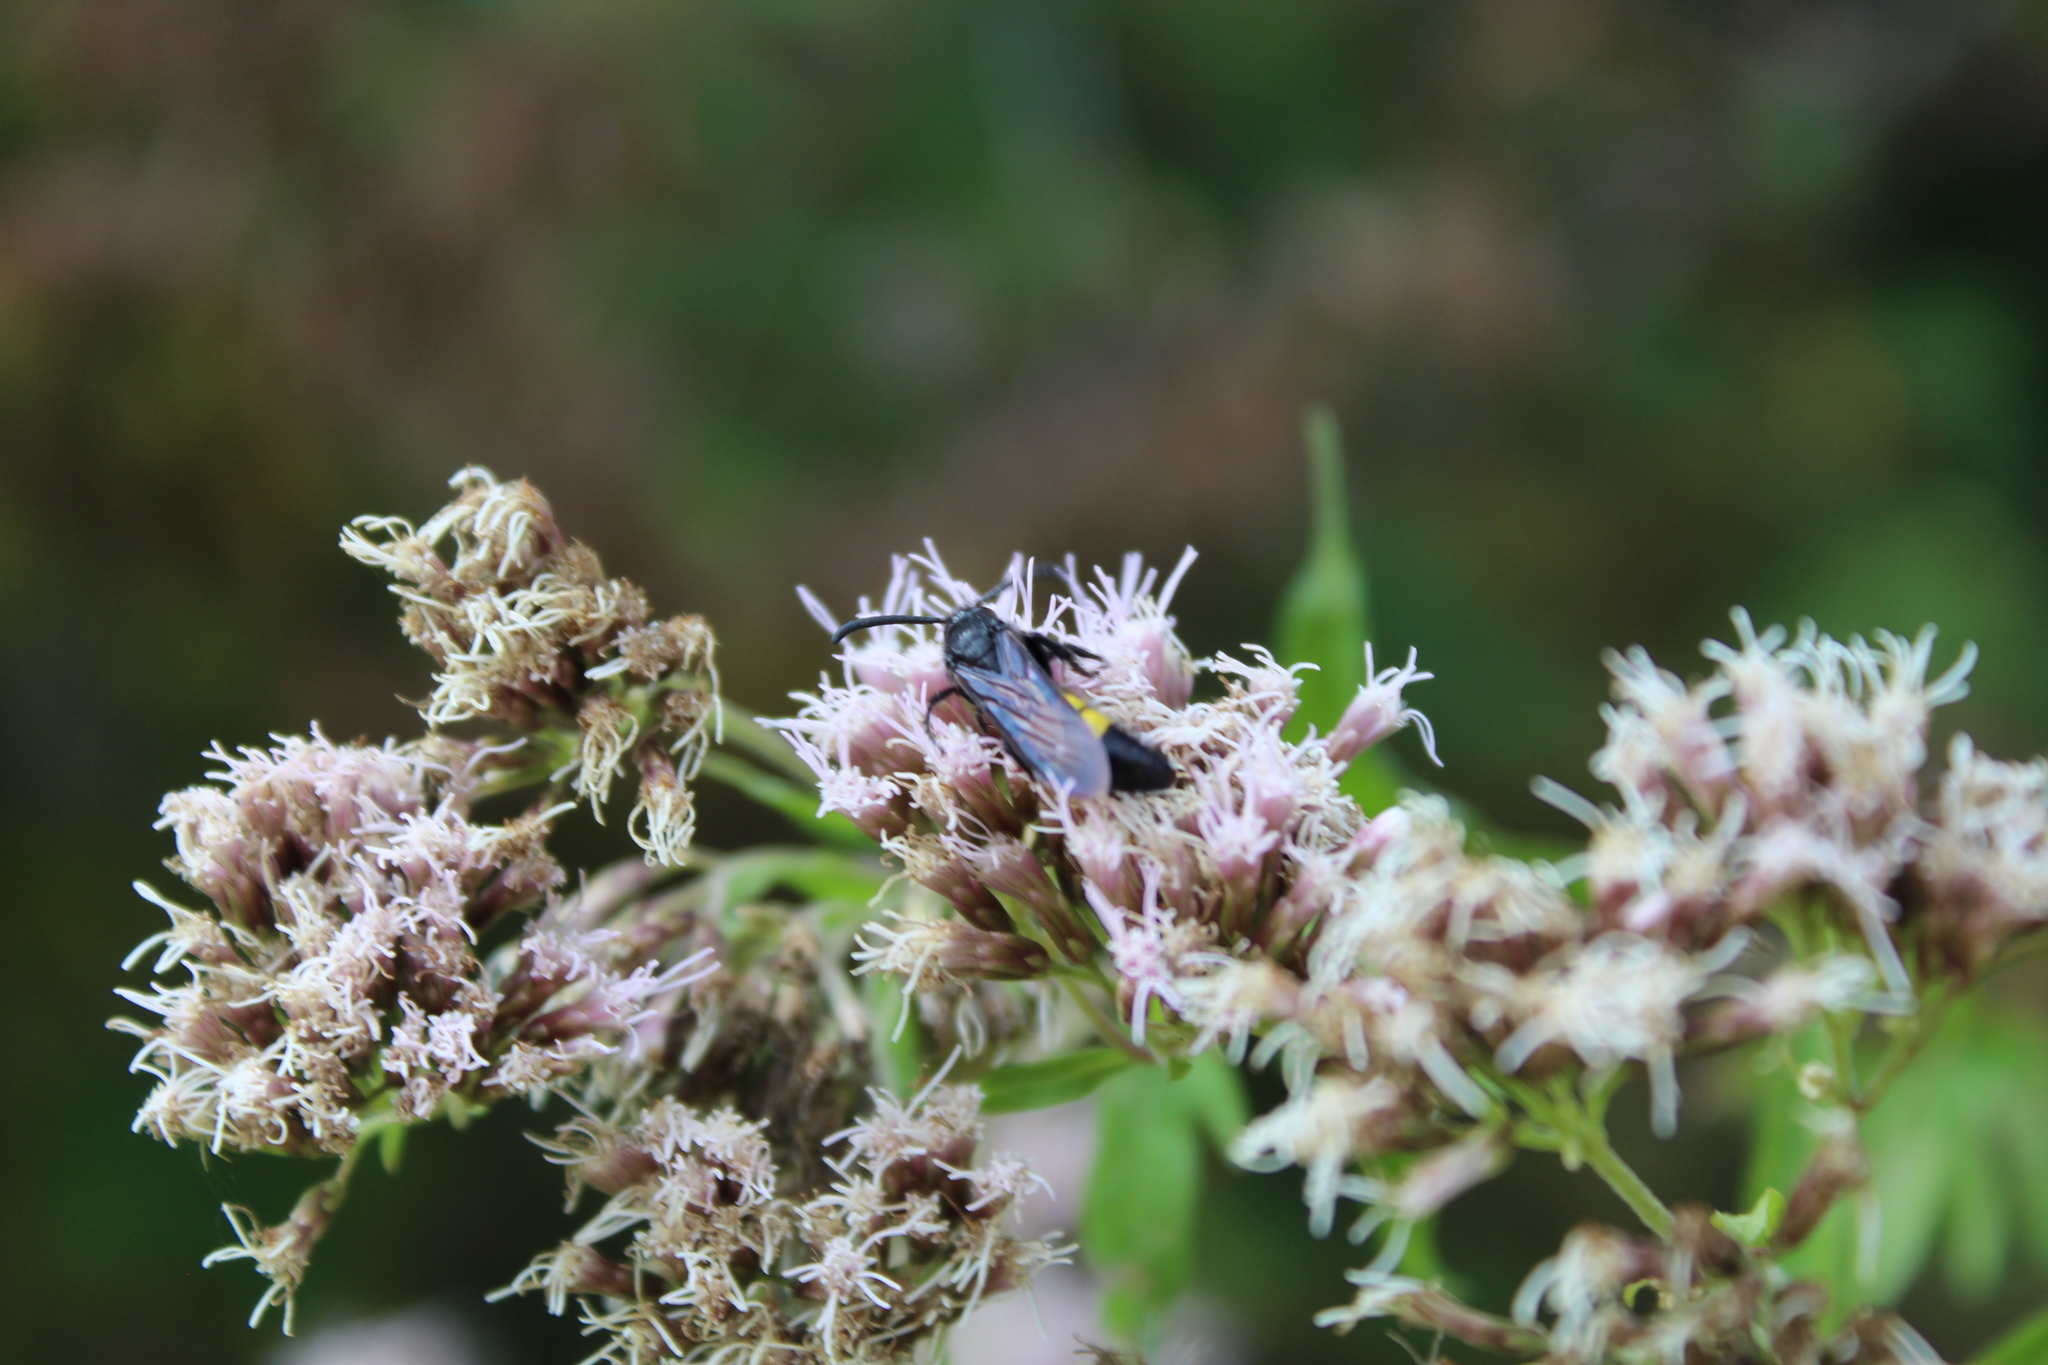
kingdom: Animalia
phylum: Arthropoda
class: Insecta
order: Hymenoptera
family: Scoliidae
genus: Scolia
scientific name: Scolia hirta
